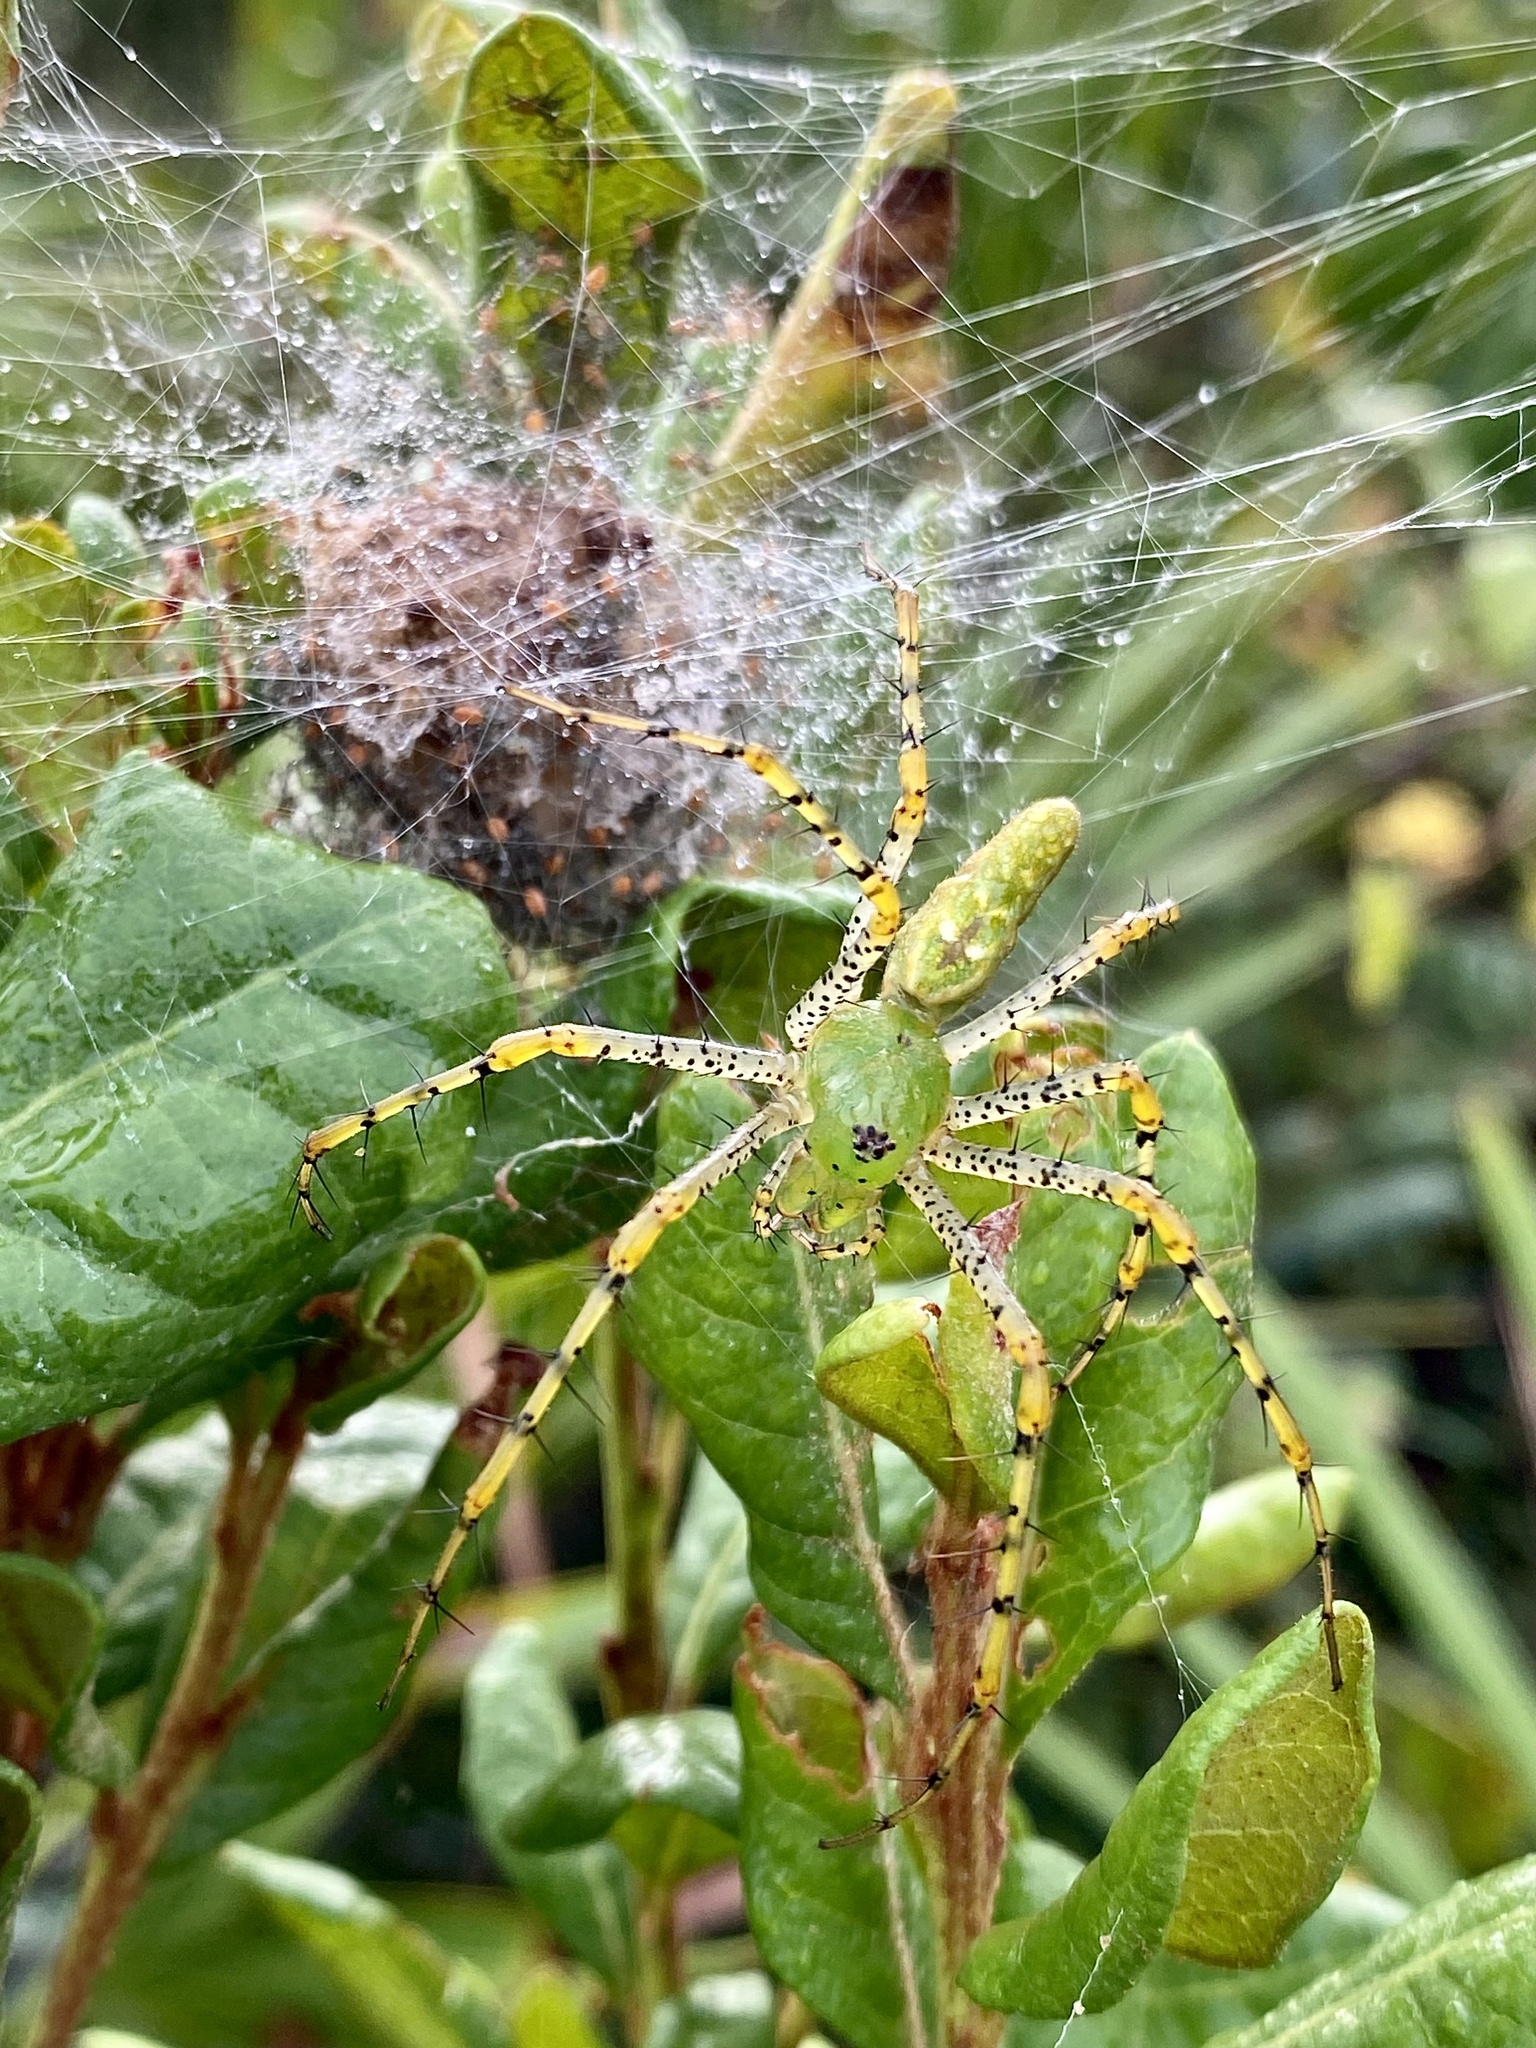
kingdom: Animalia
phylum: Arthropoda
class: Arachnida
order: Araneae
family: Oxyopidae
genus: Peucetia
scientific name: Peucetia viridans
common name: Lynx spiders
